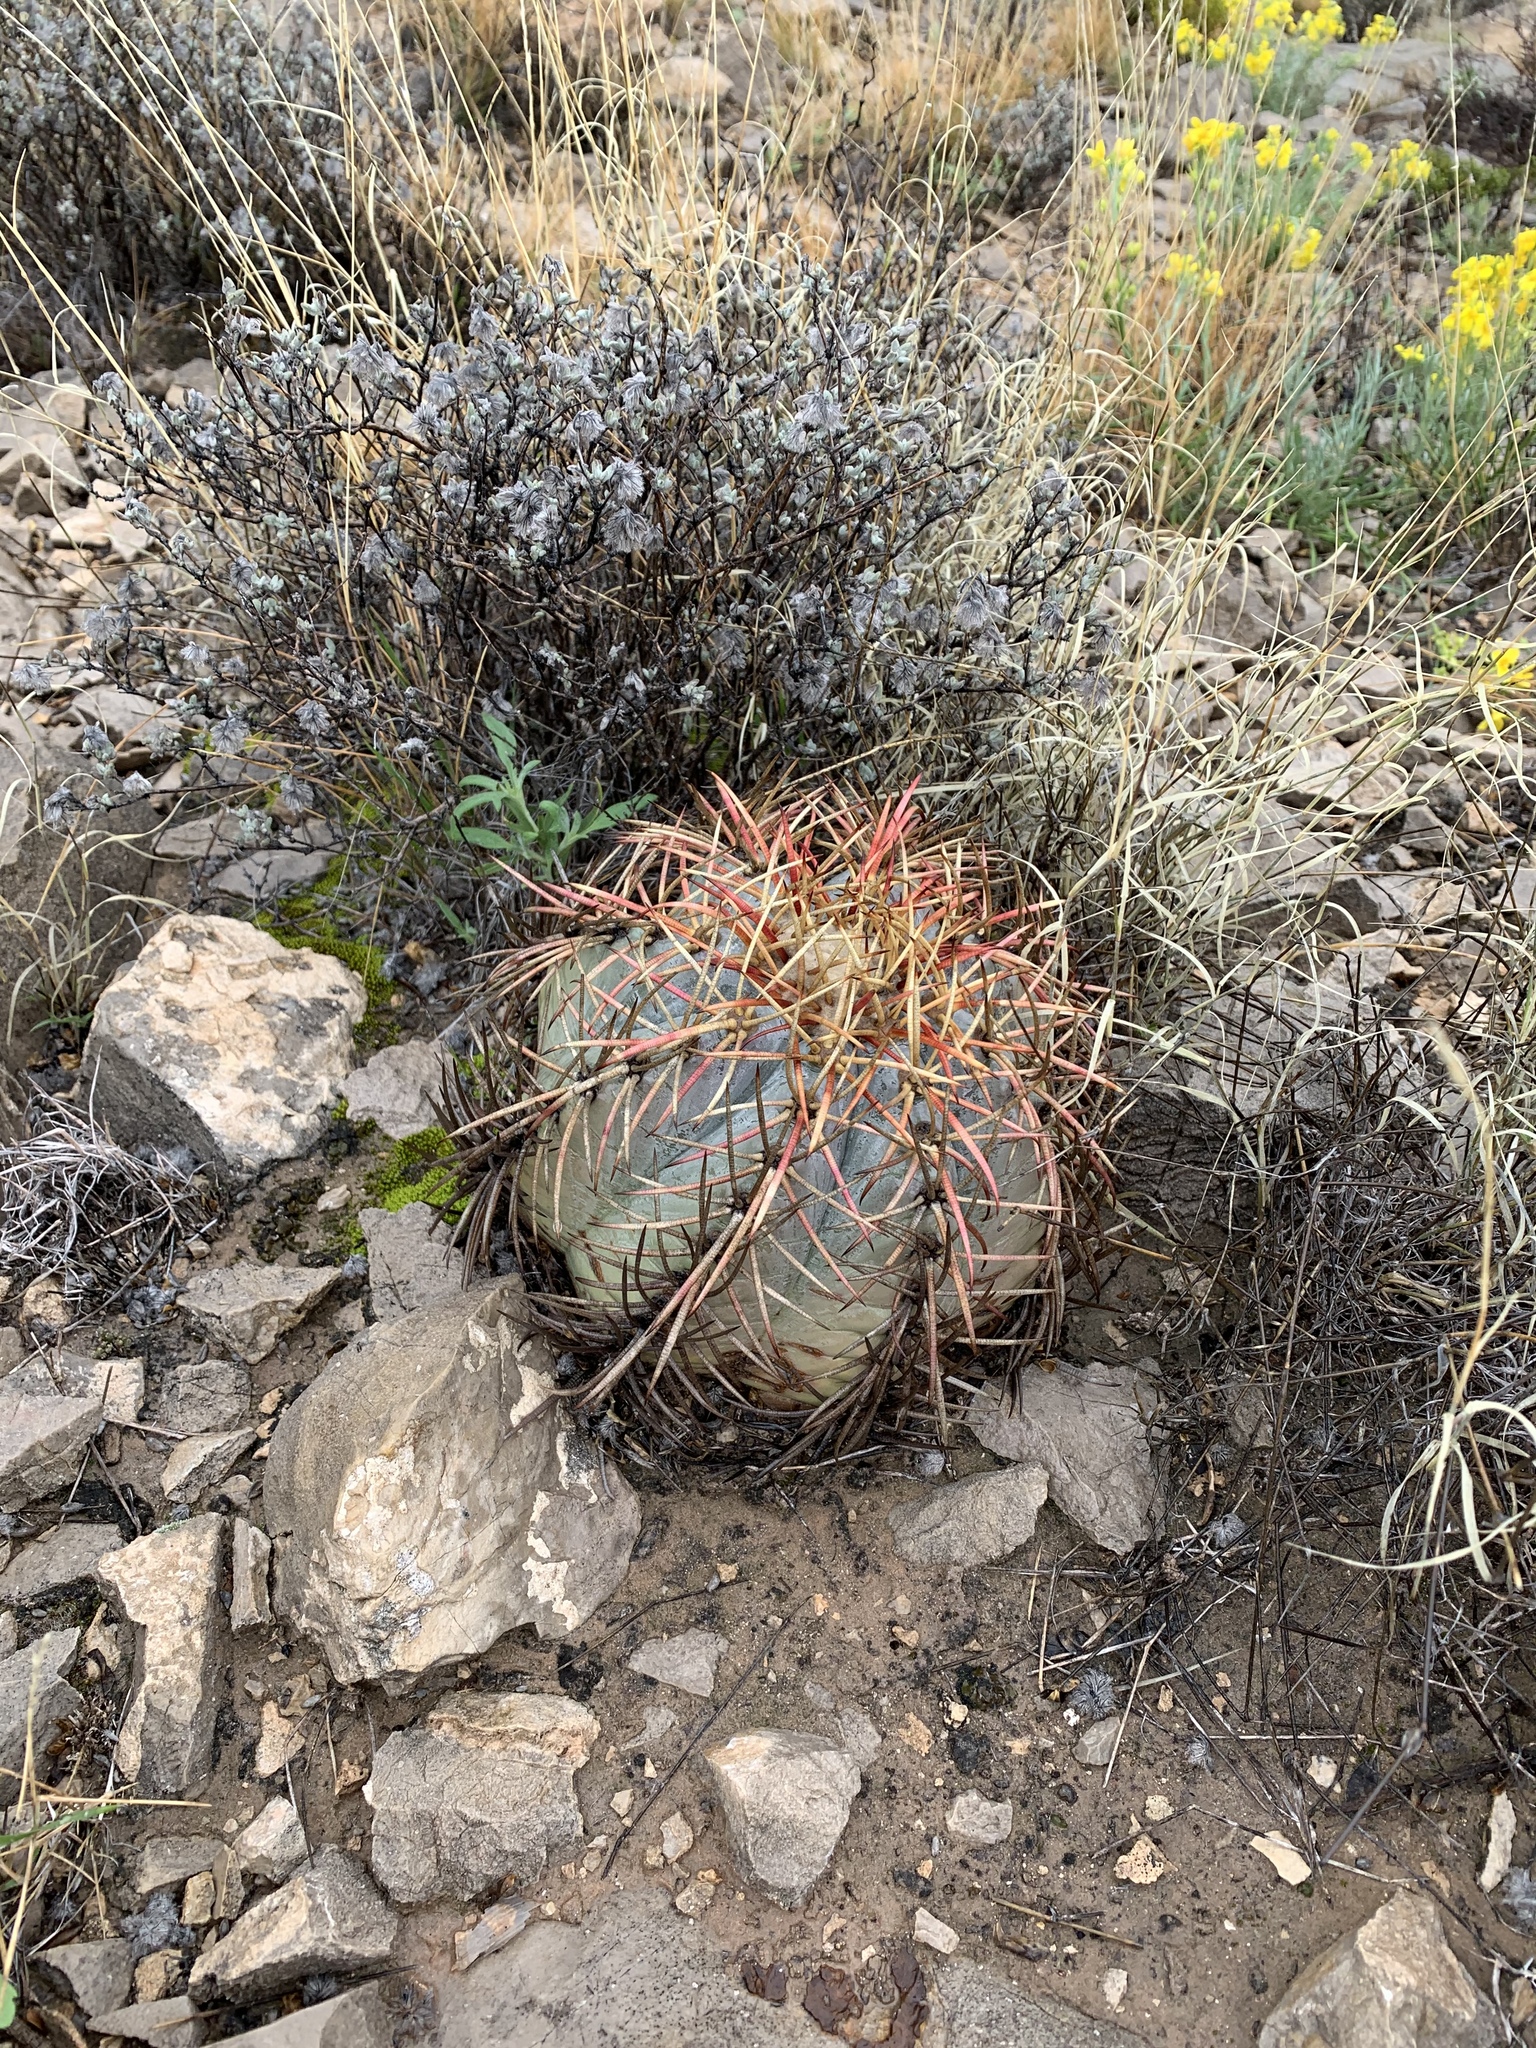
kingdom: Plantae
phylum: Tracheophyta
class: Magnoliopsida
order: Caryophyllales
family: Cactaceae
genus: Echinocactus
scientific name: Echinocactus horizonthalonius
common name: Devilshead
